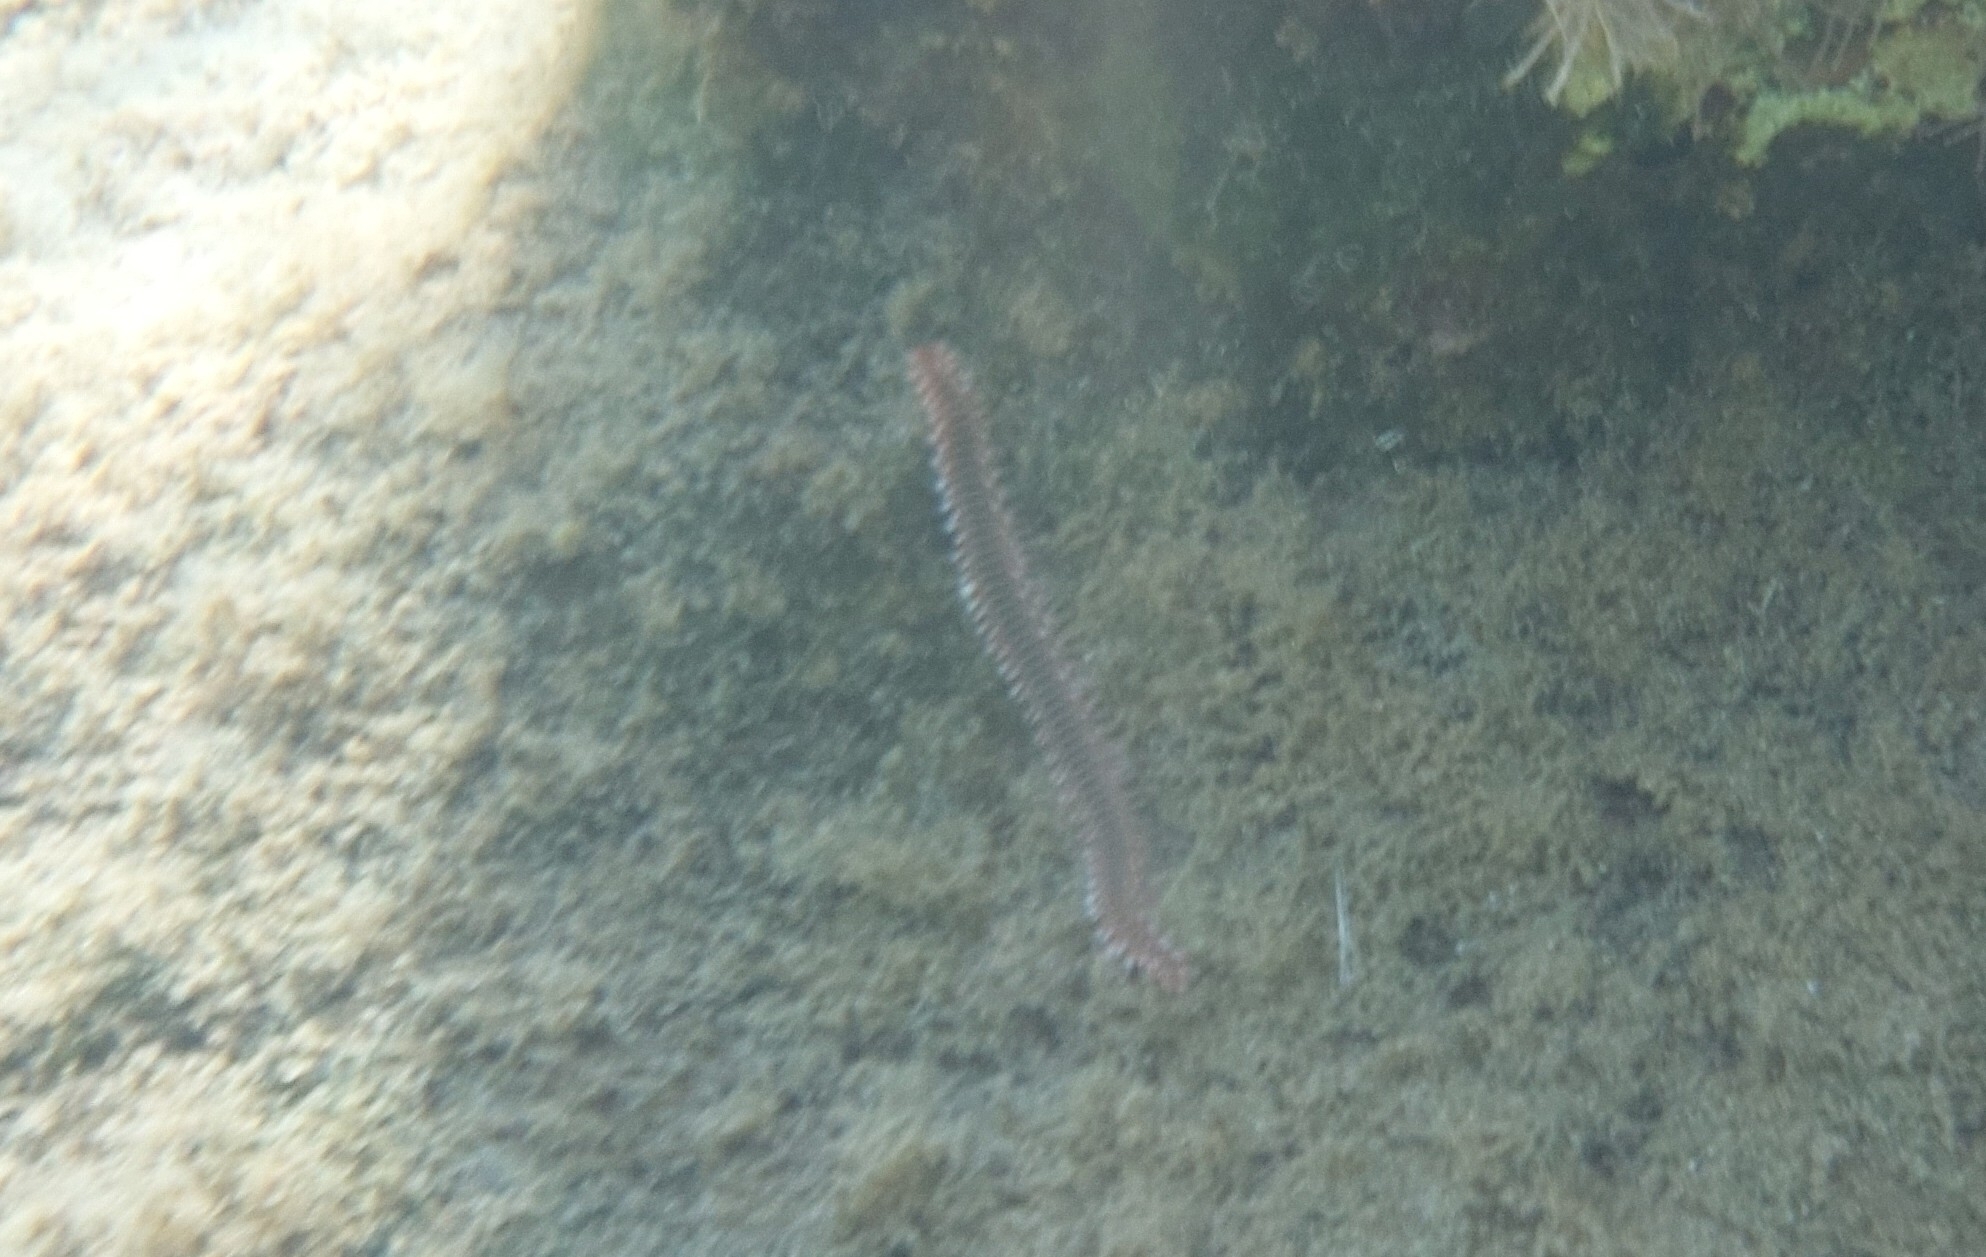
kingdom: Animalia
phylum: Annelida
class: Polychaeta
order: Amphinomida
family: Amphinomidae
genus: Hermodice
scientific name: Hermodice carunculata
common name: Bearded fireworm
